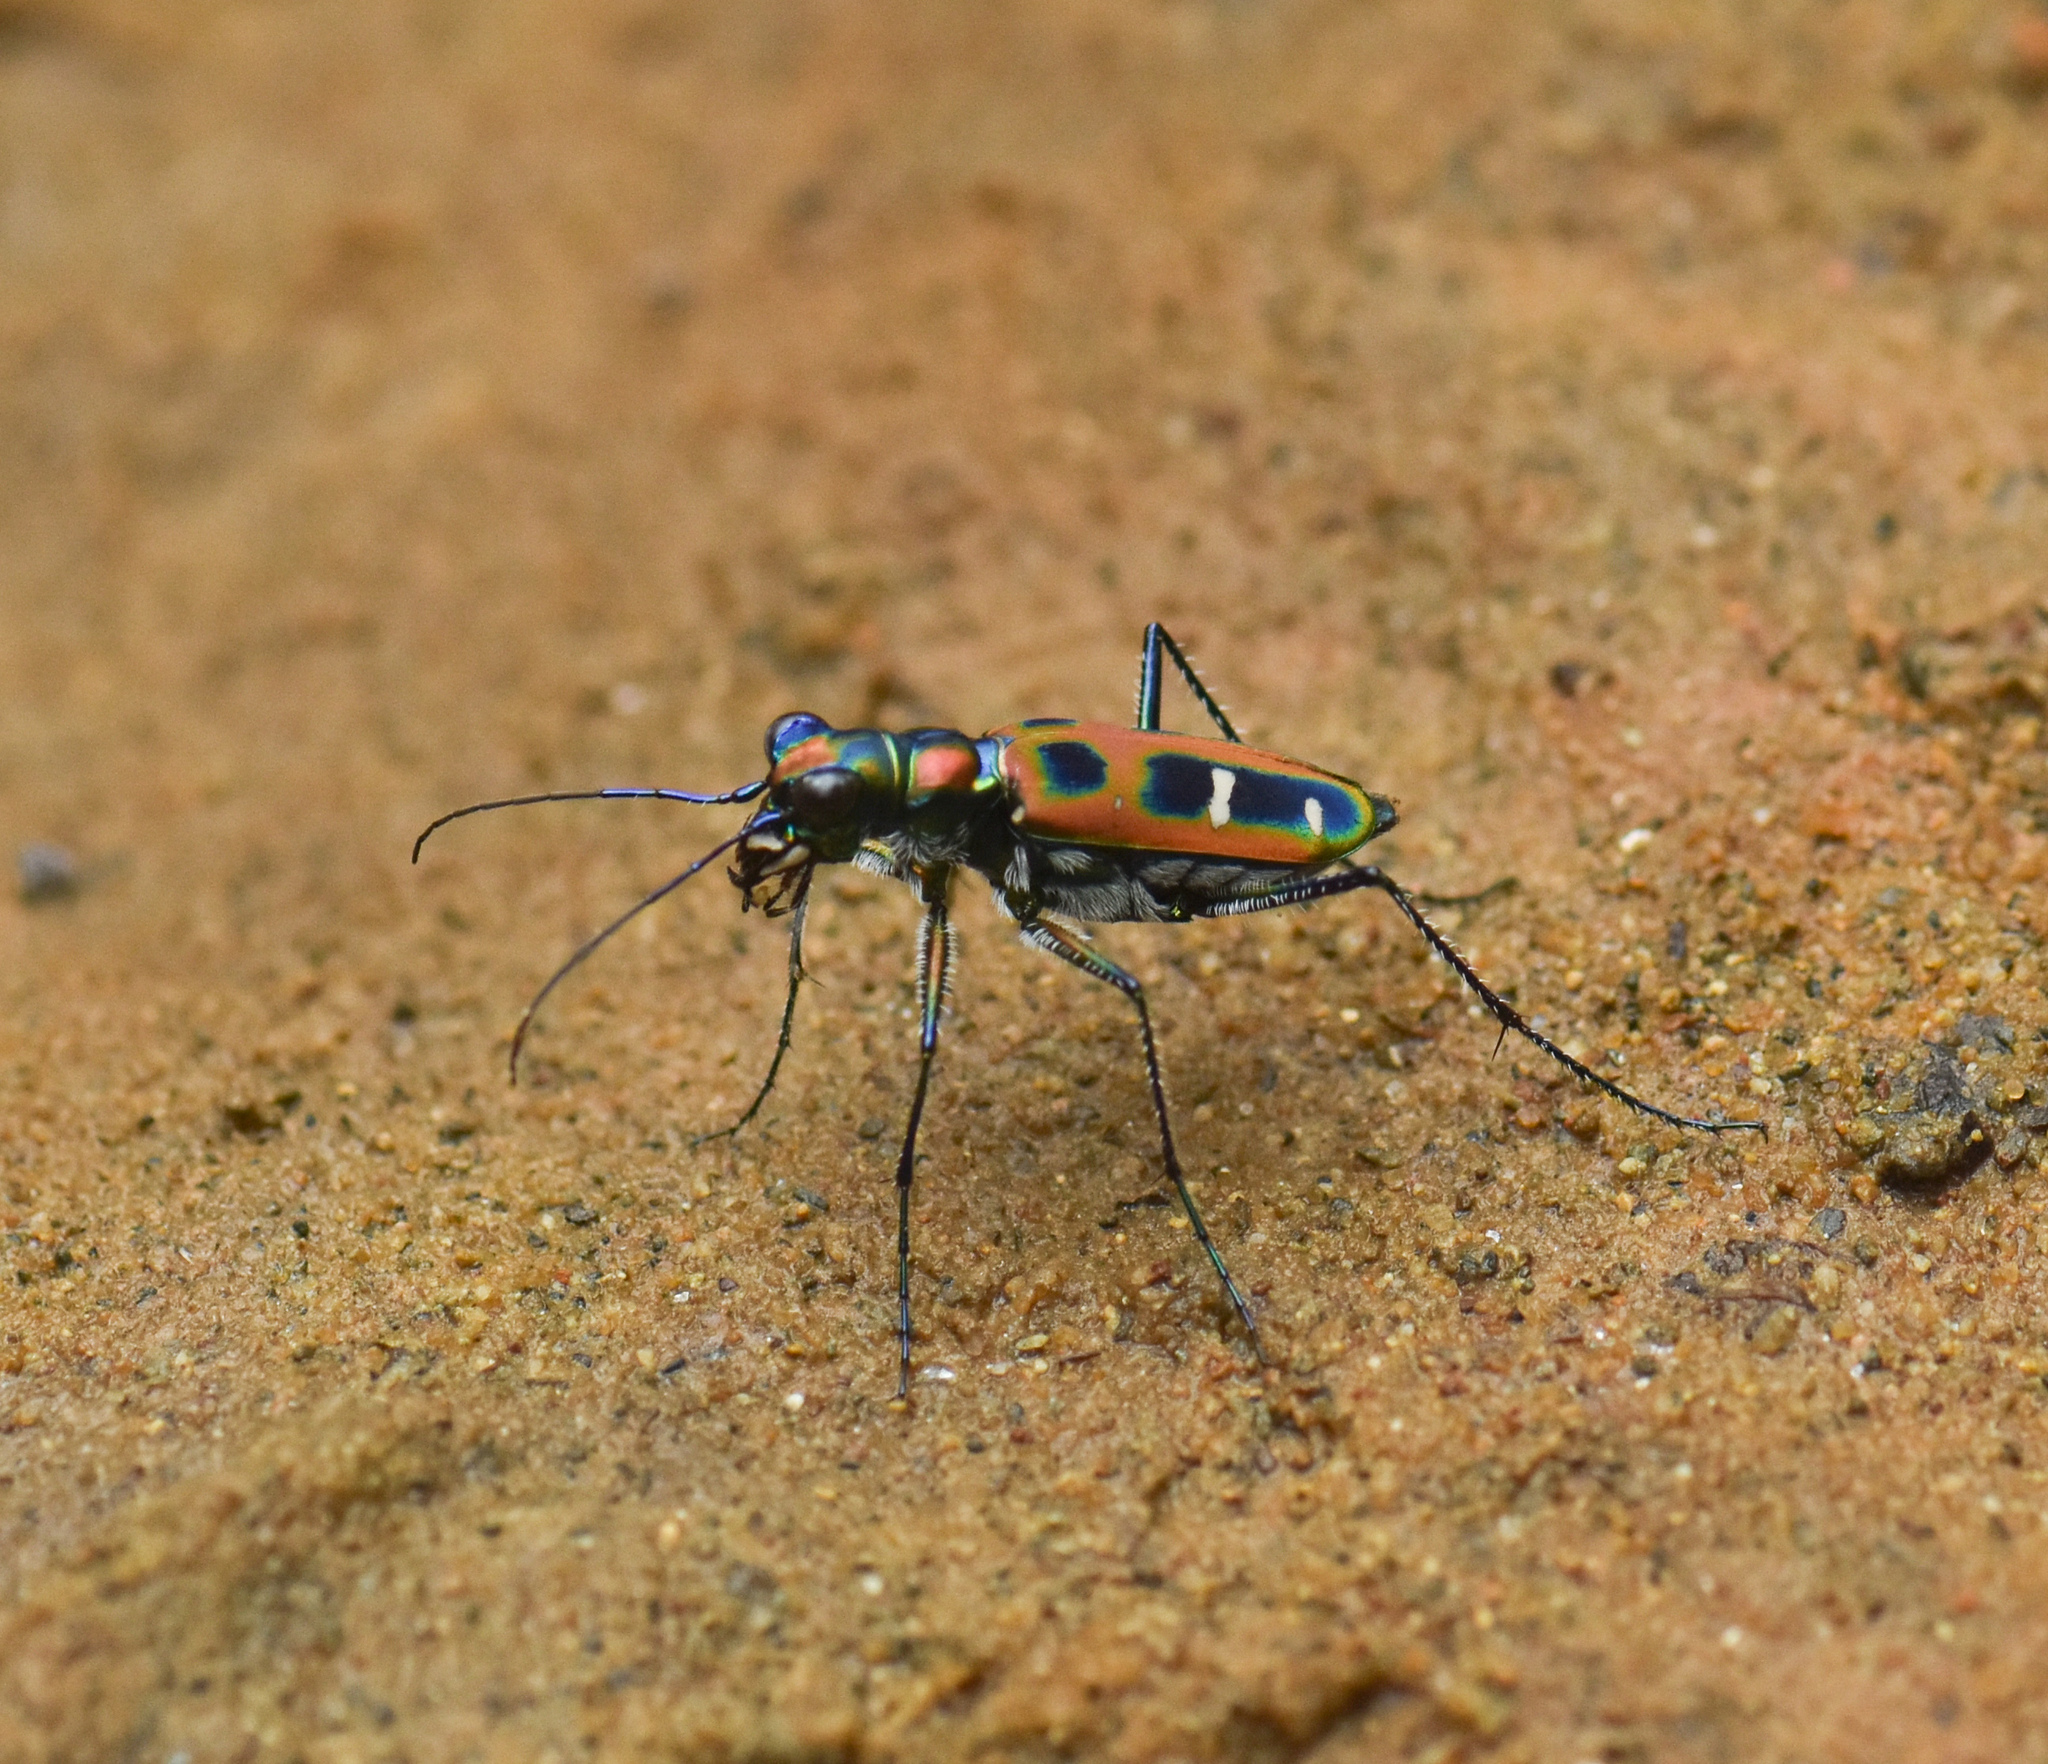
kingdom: Animalia
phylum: Arthropoda
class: Insecta
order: Coleoptera
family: Carabidae
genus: Cicindela
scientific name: Cicindela barmanica
